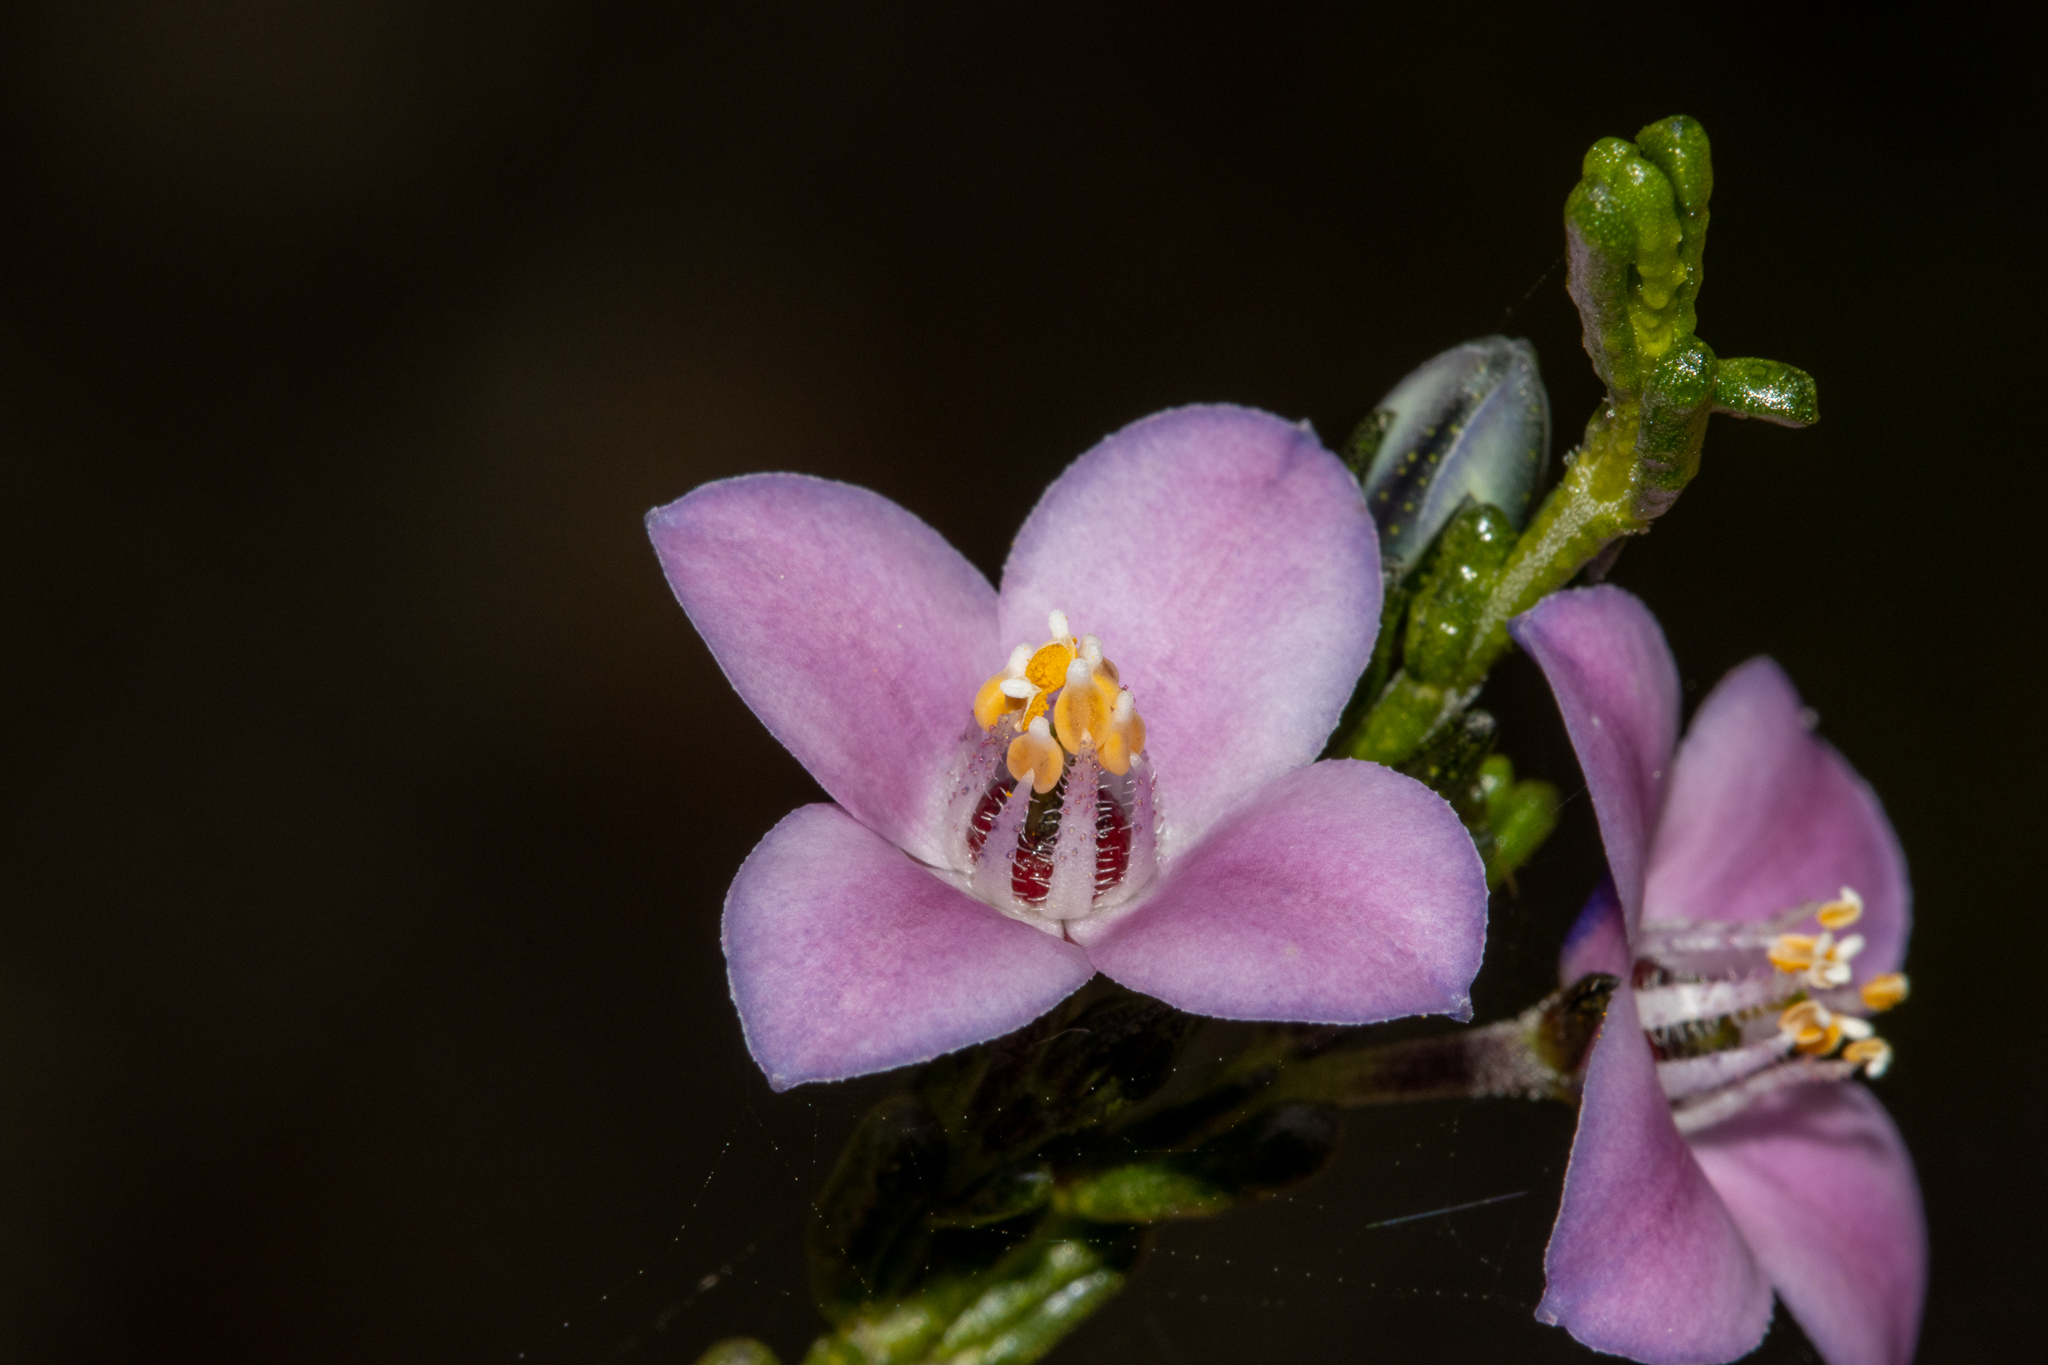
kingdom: Plantae
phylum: Tracheophyta
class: Magnoliopsida
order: Sapindales
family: Rutaceae
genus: Cyanothamnus
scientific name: Cyanothamnus coerulescens
